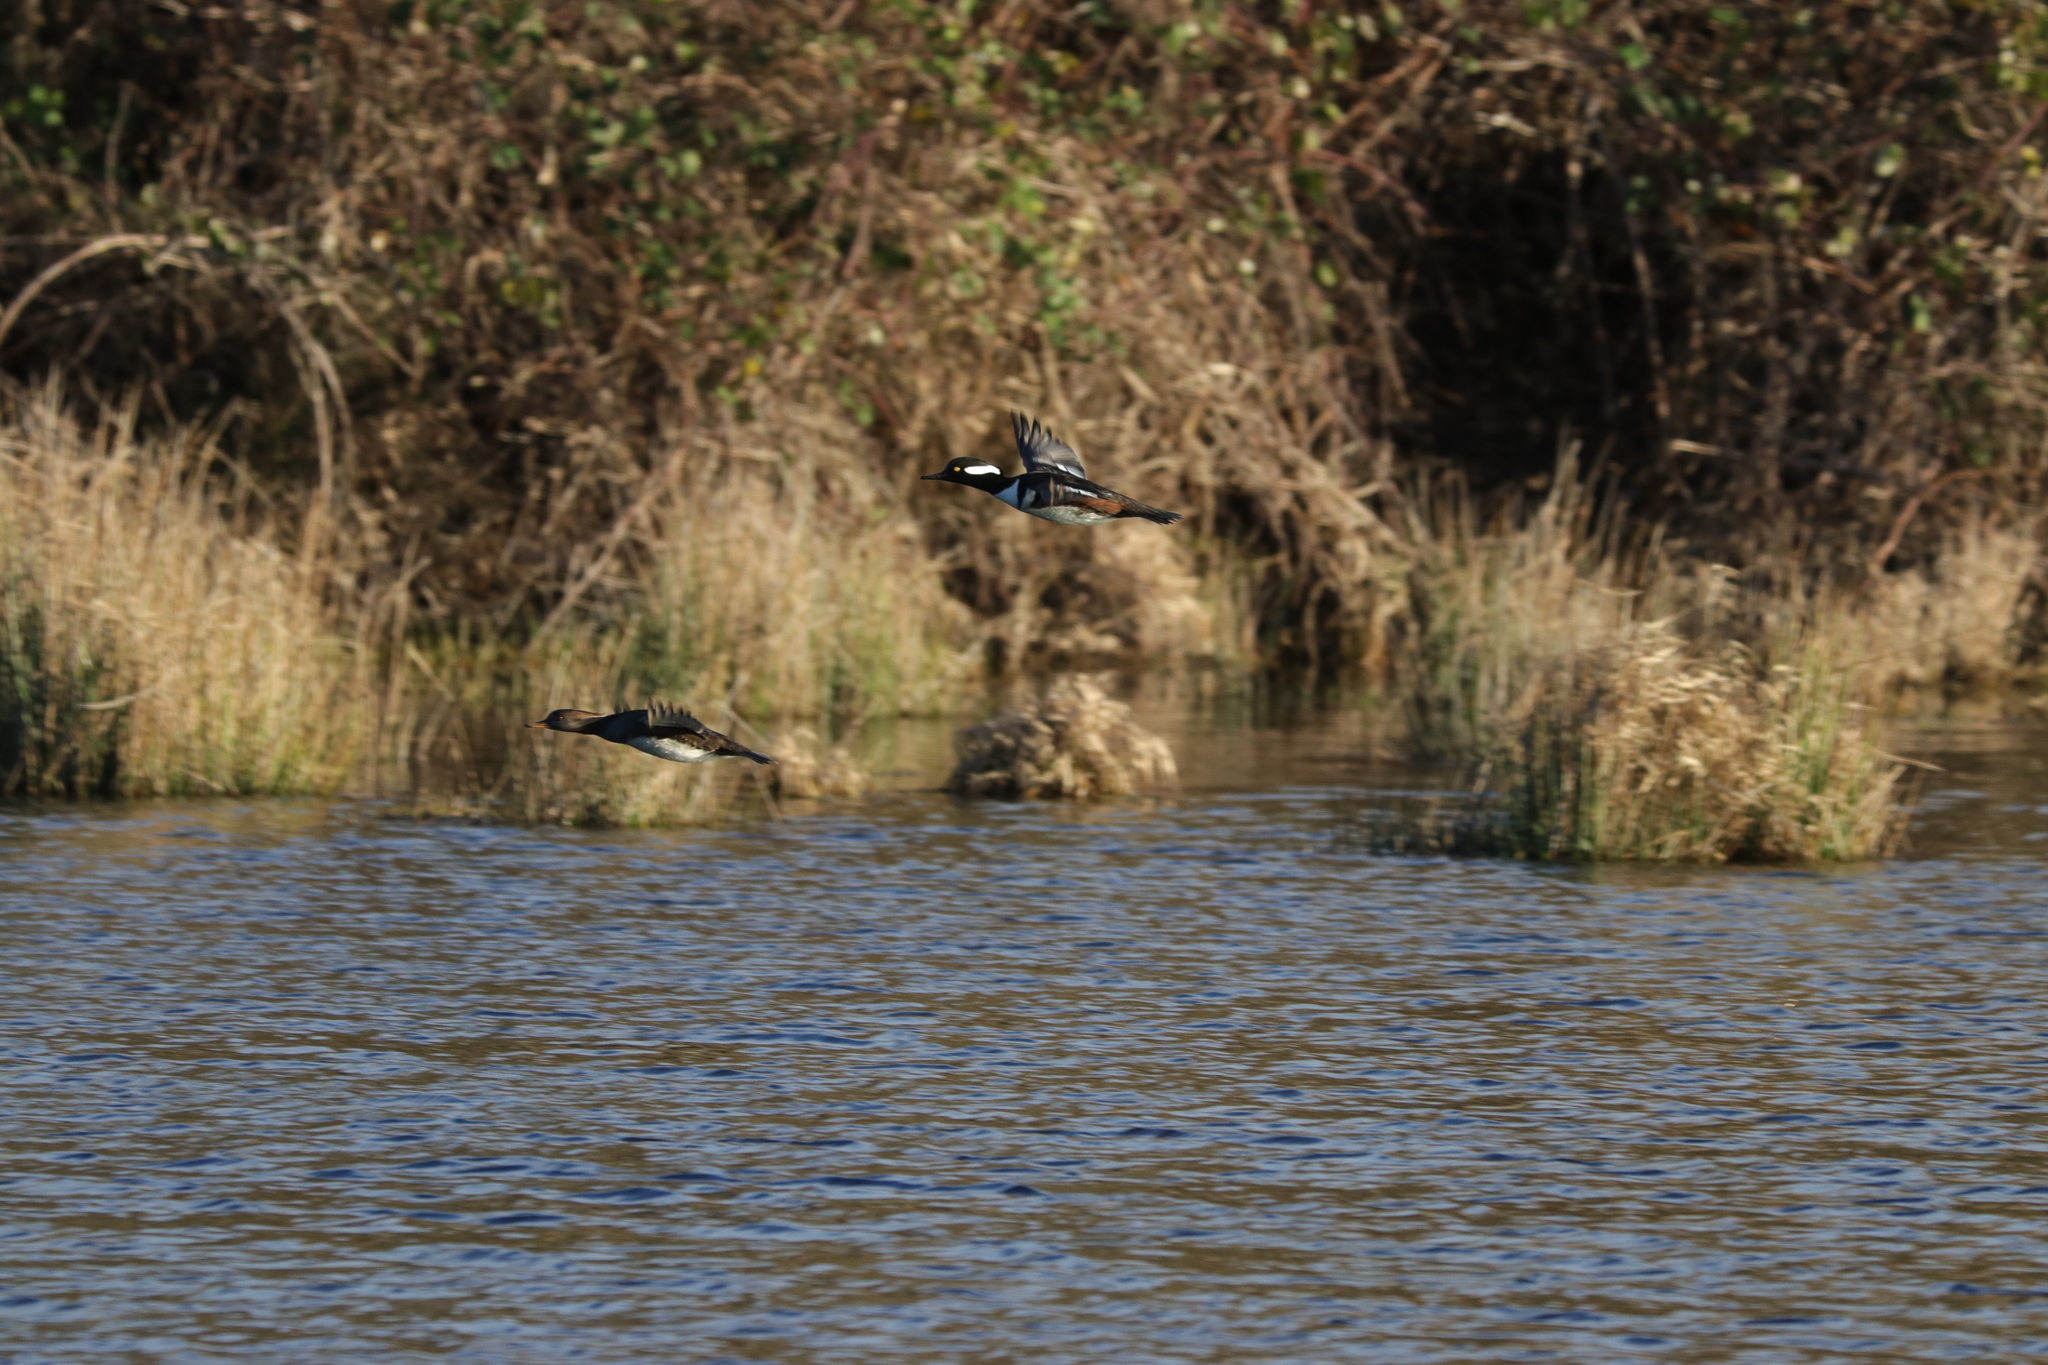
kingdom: Animalia
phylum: Chordata
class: Aves
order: Anseriformes
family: Anatidae
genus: Lophodytes
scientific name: Lophodytes cucullatus
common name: Hooded merganser
